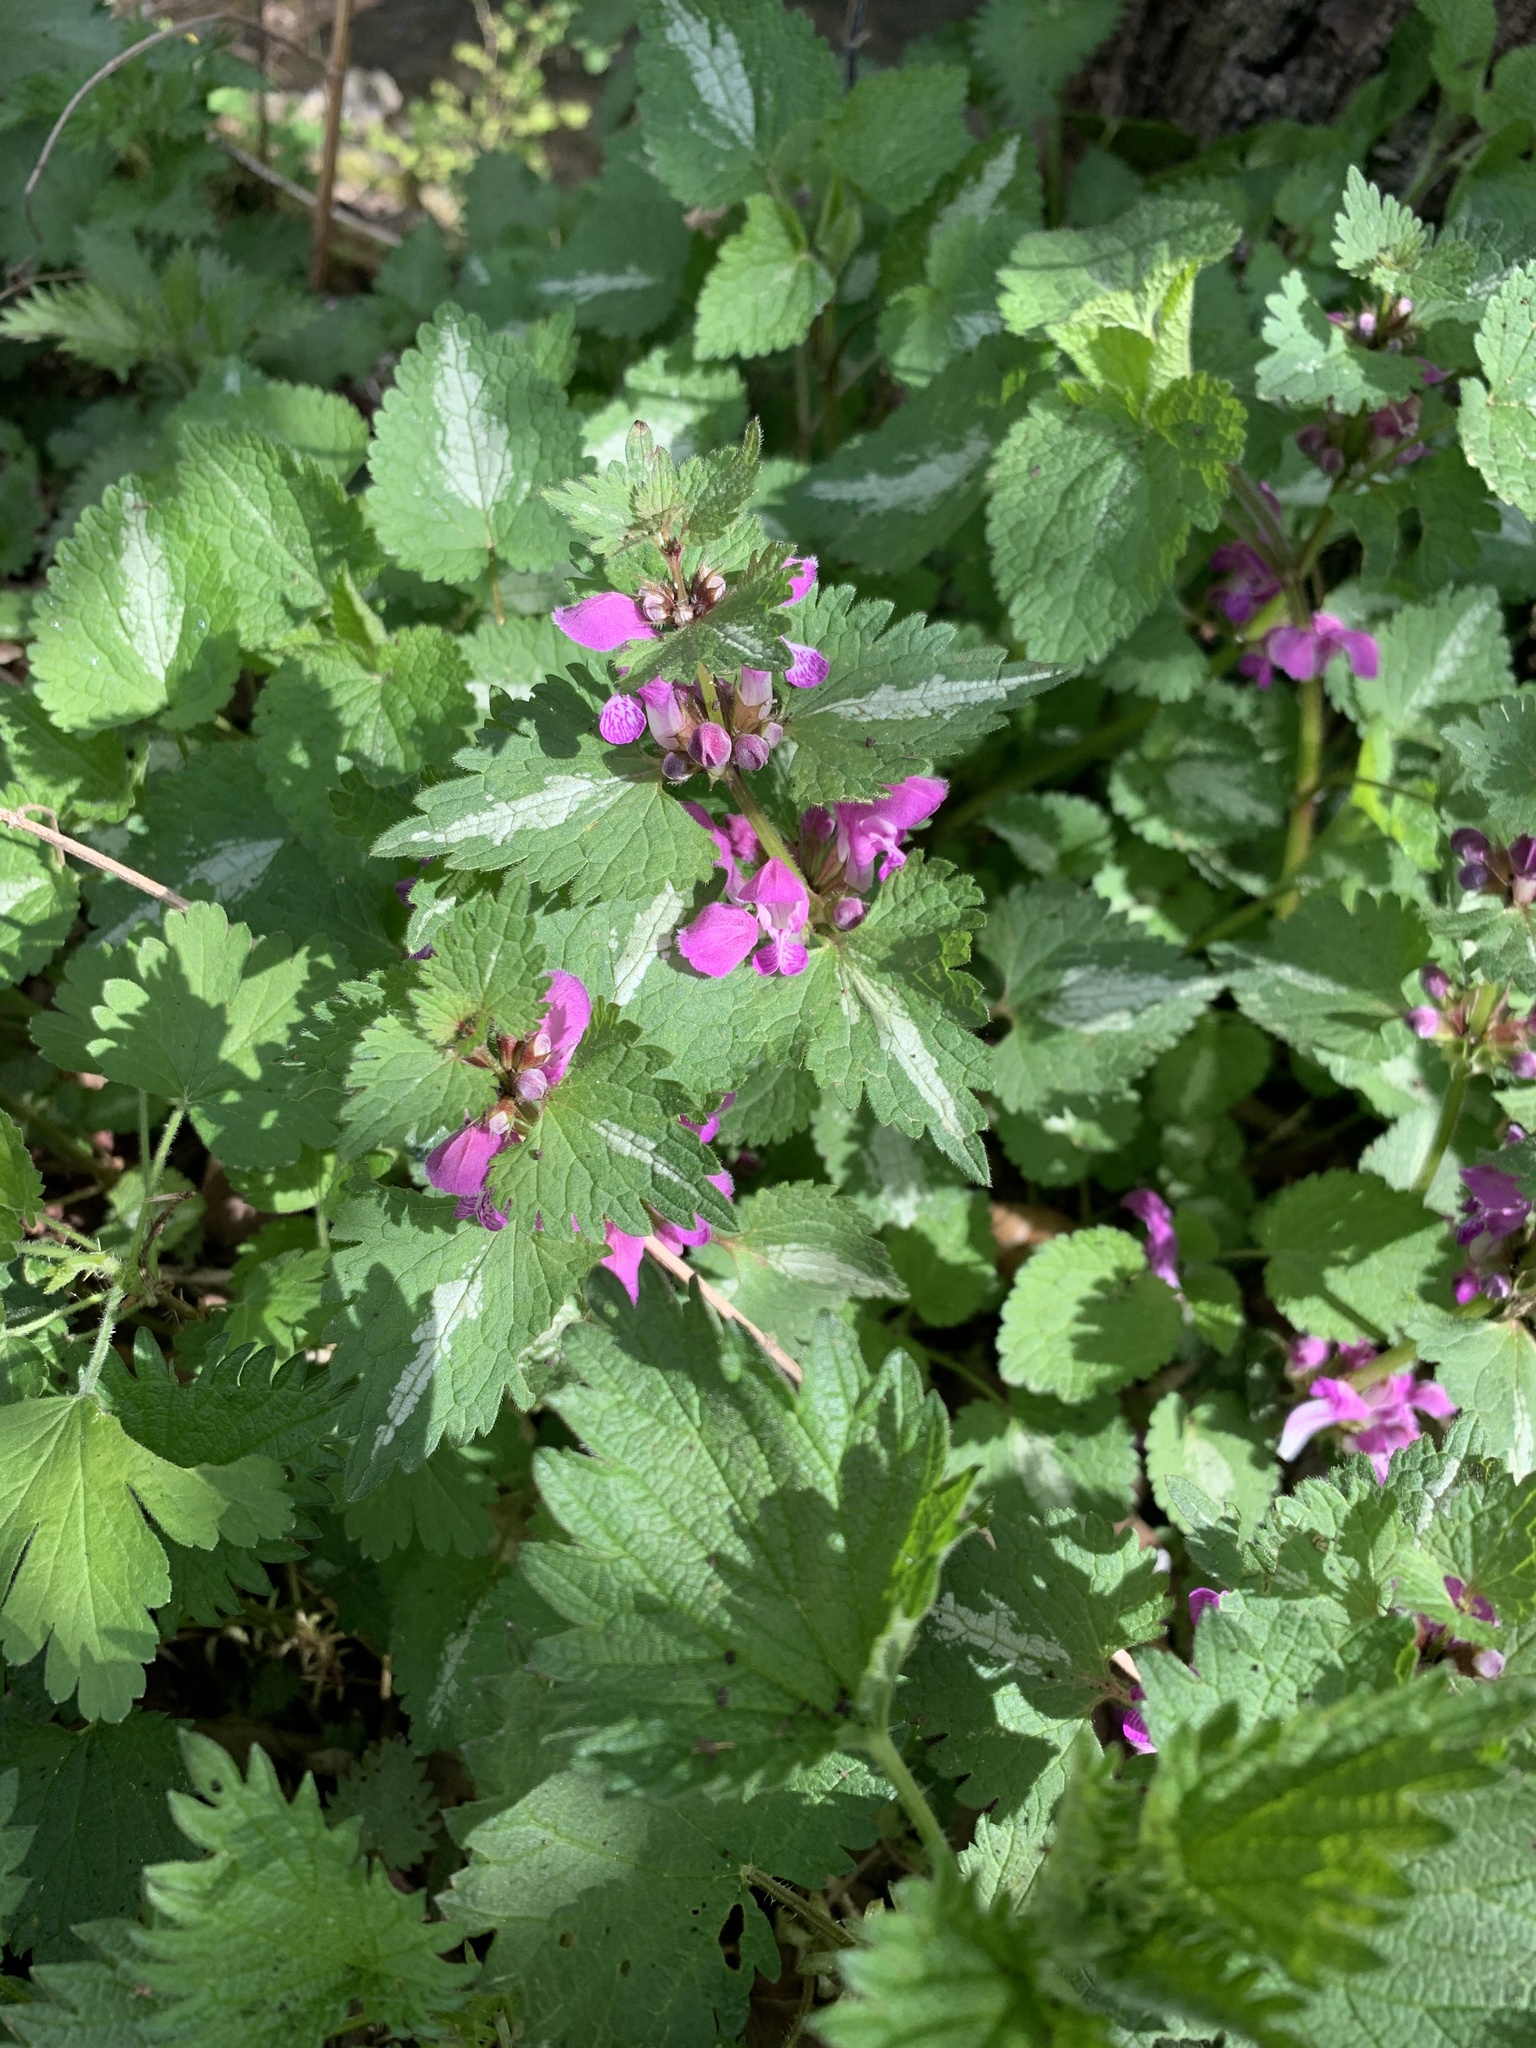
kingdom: Plantae
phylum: Tracheophyta
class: Magnoliopsida
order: Lamiales
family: Lamiaceae
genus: Lamium
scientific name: Lamium maculatum
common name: Spotted dead-nettle
